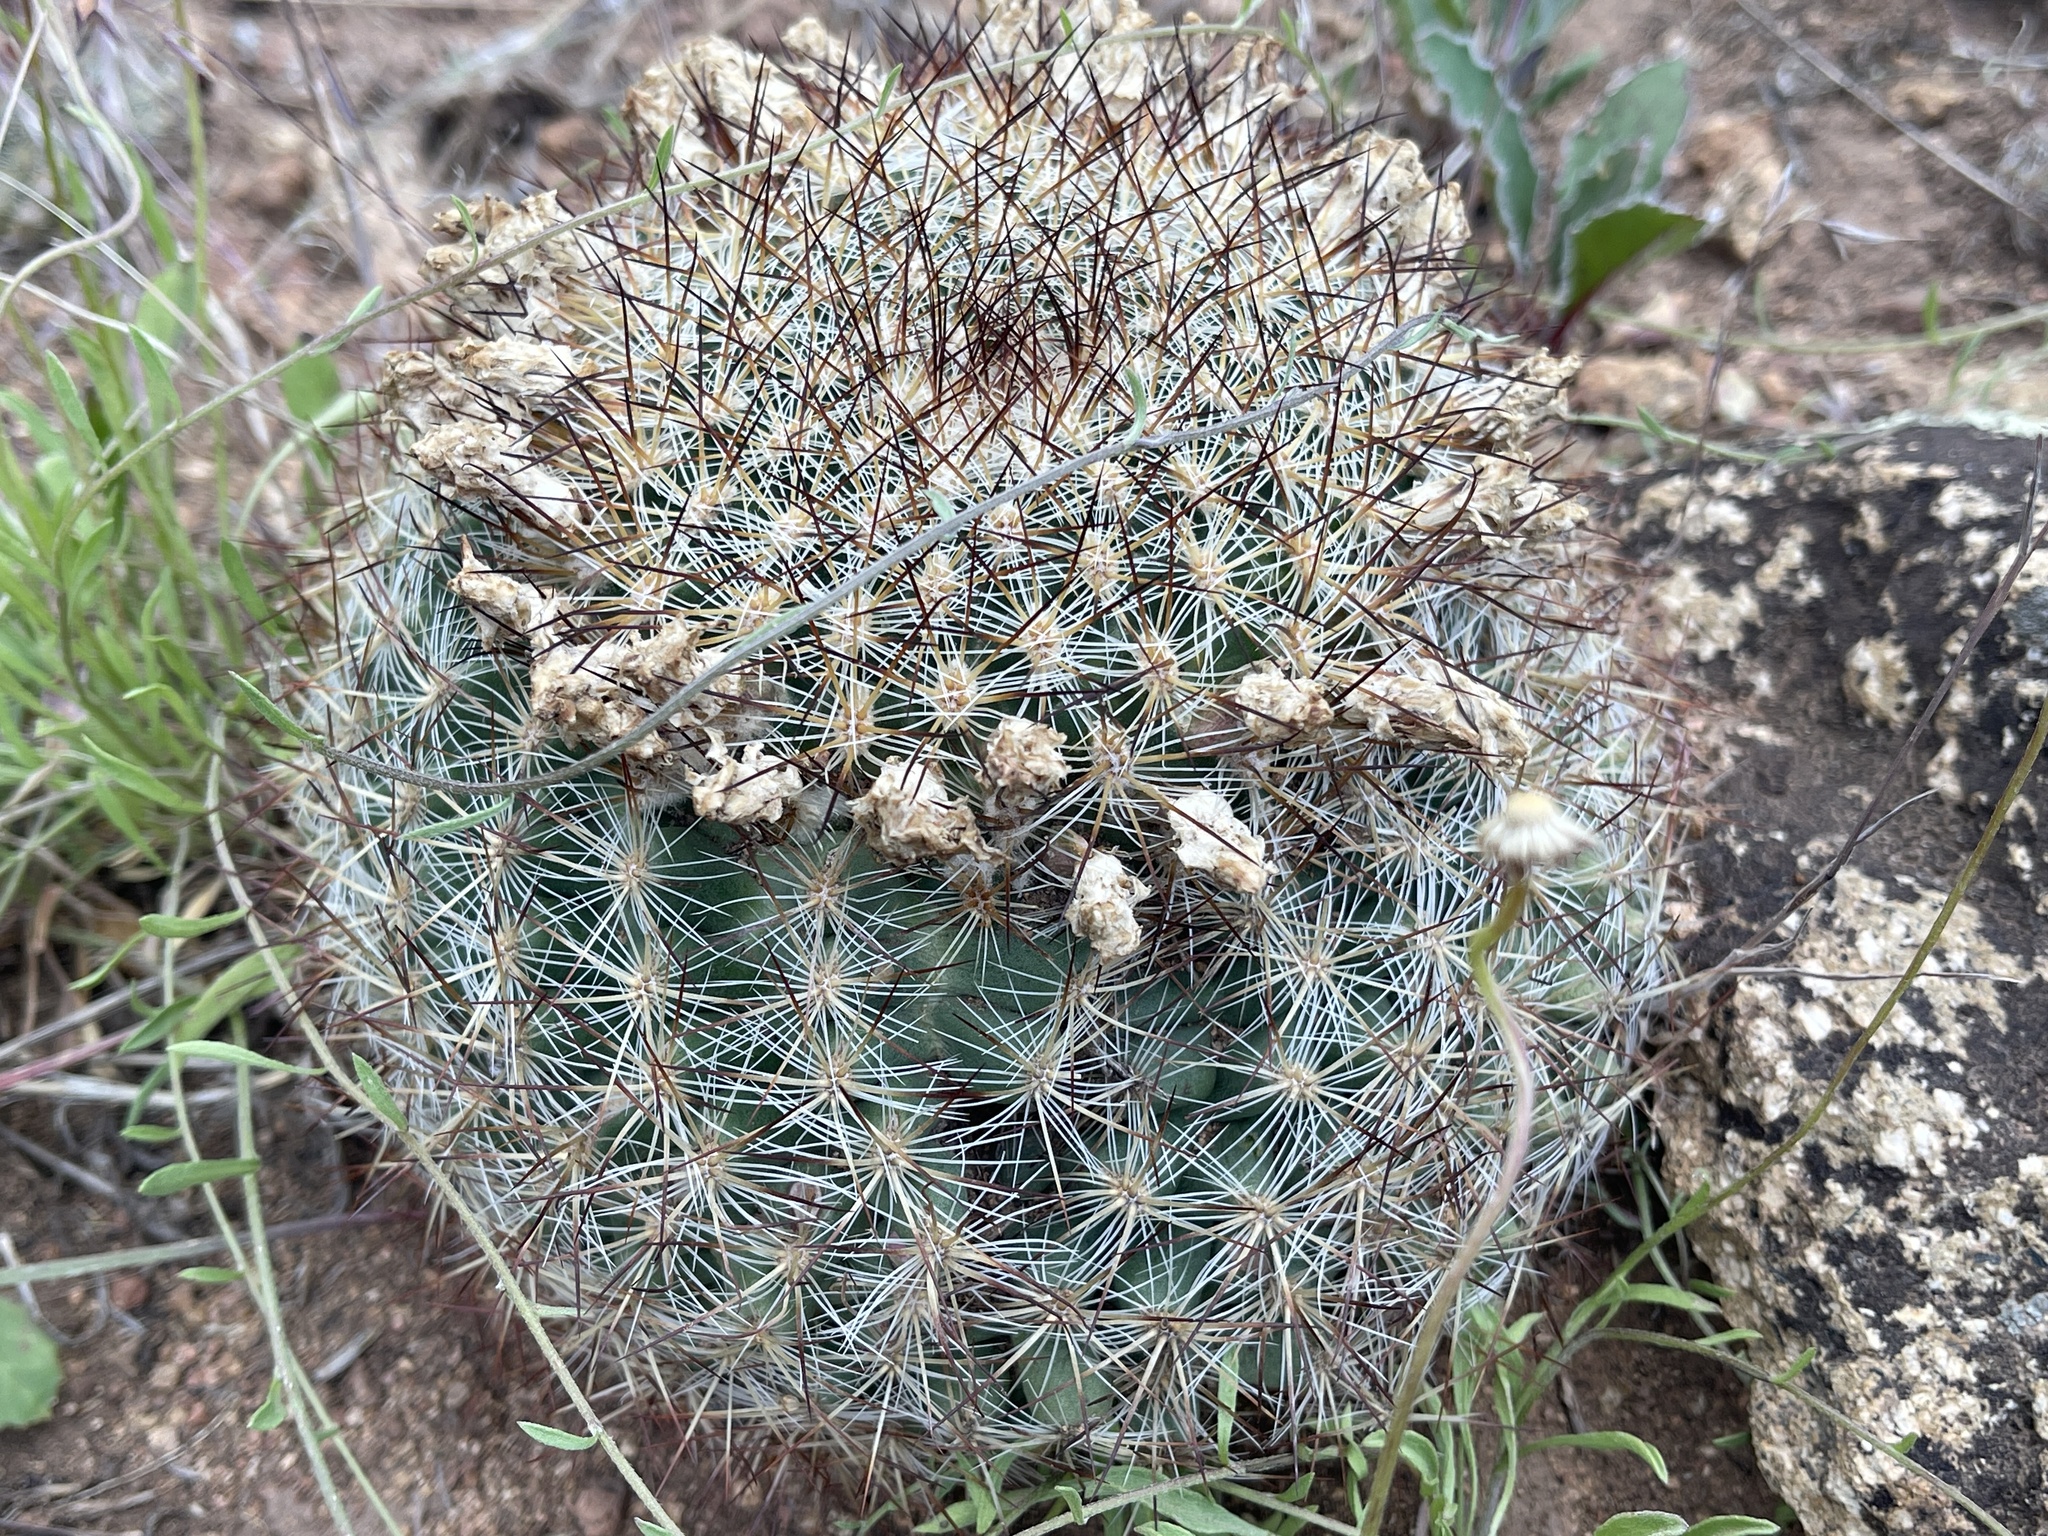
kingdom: Plantae
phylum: Tracheophyta
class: Magnoliopsida
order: Caryophyllales
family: Cactaceae
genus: Pediocactus
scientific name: Pediocactus simpsonii
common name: Simpson's hedgehog cactus
